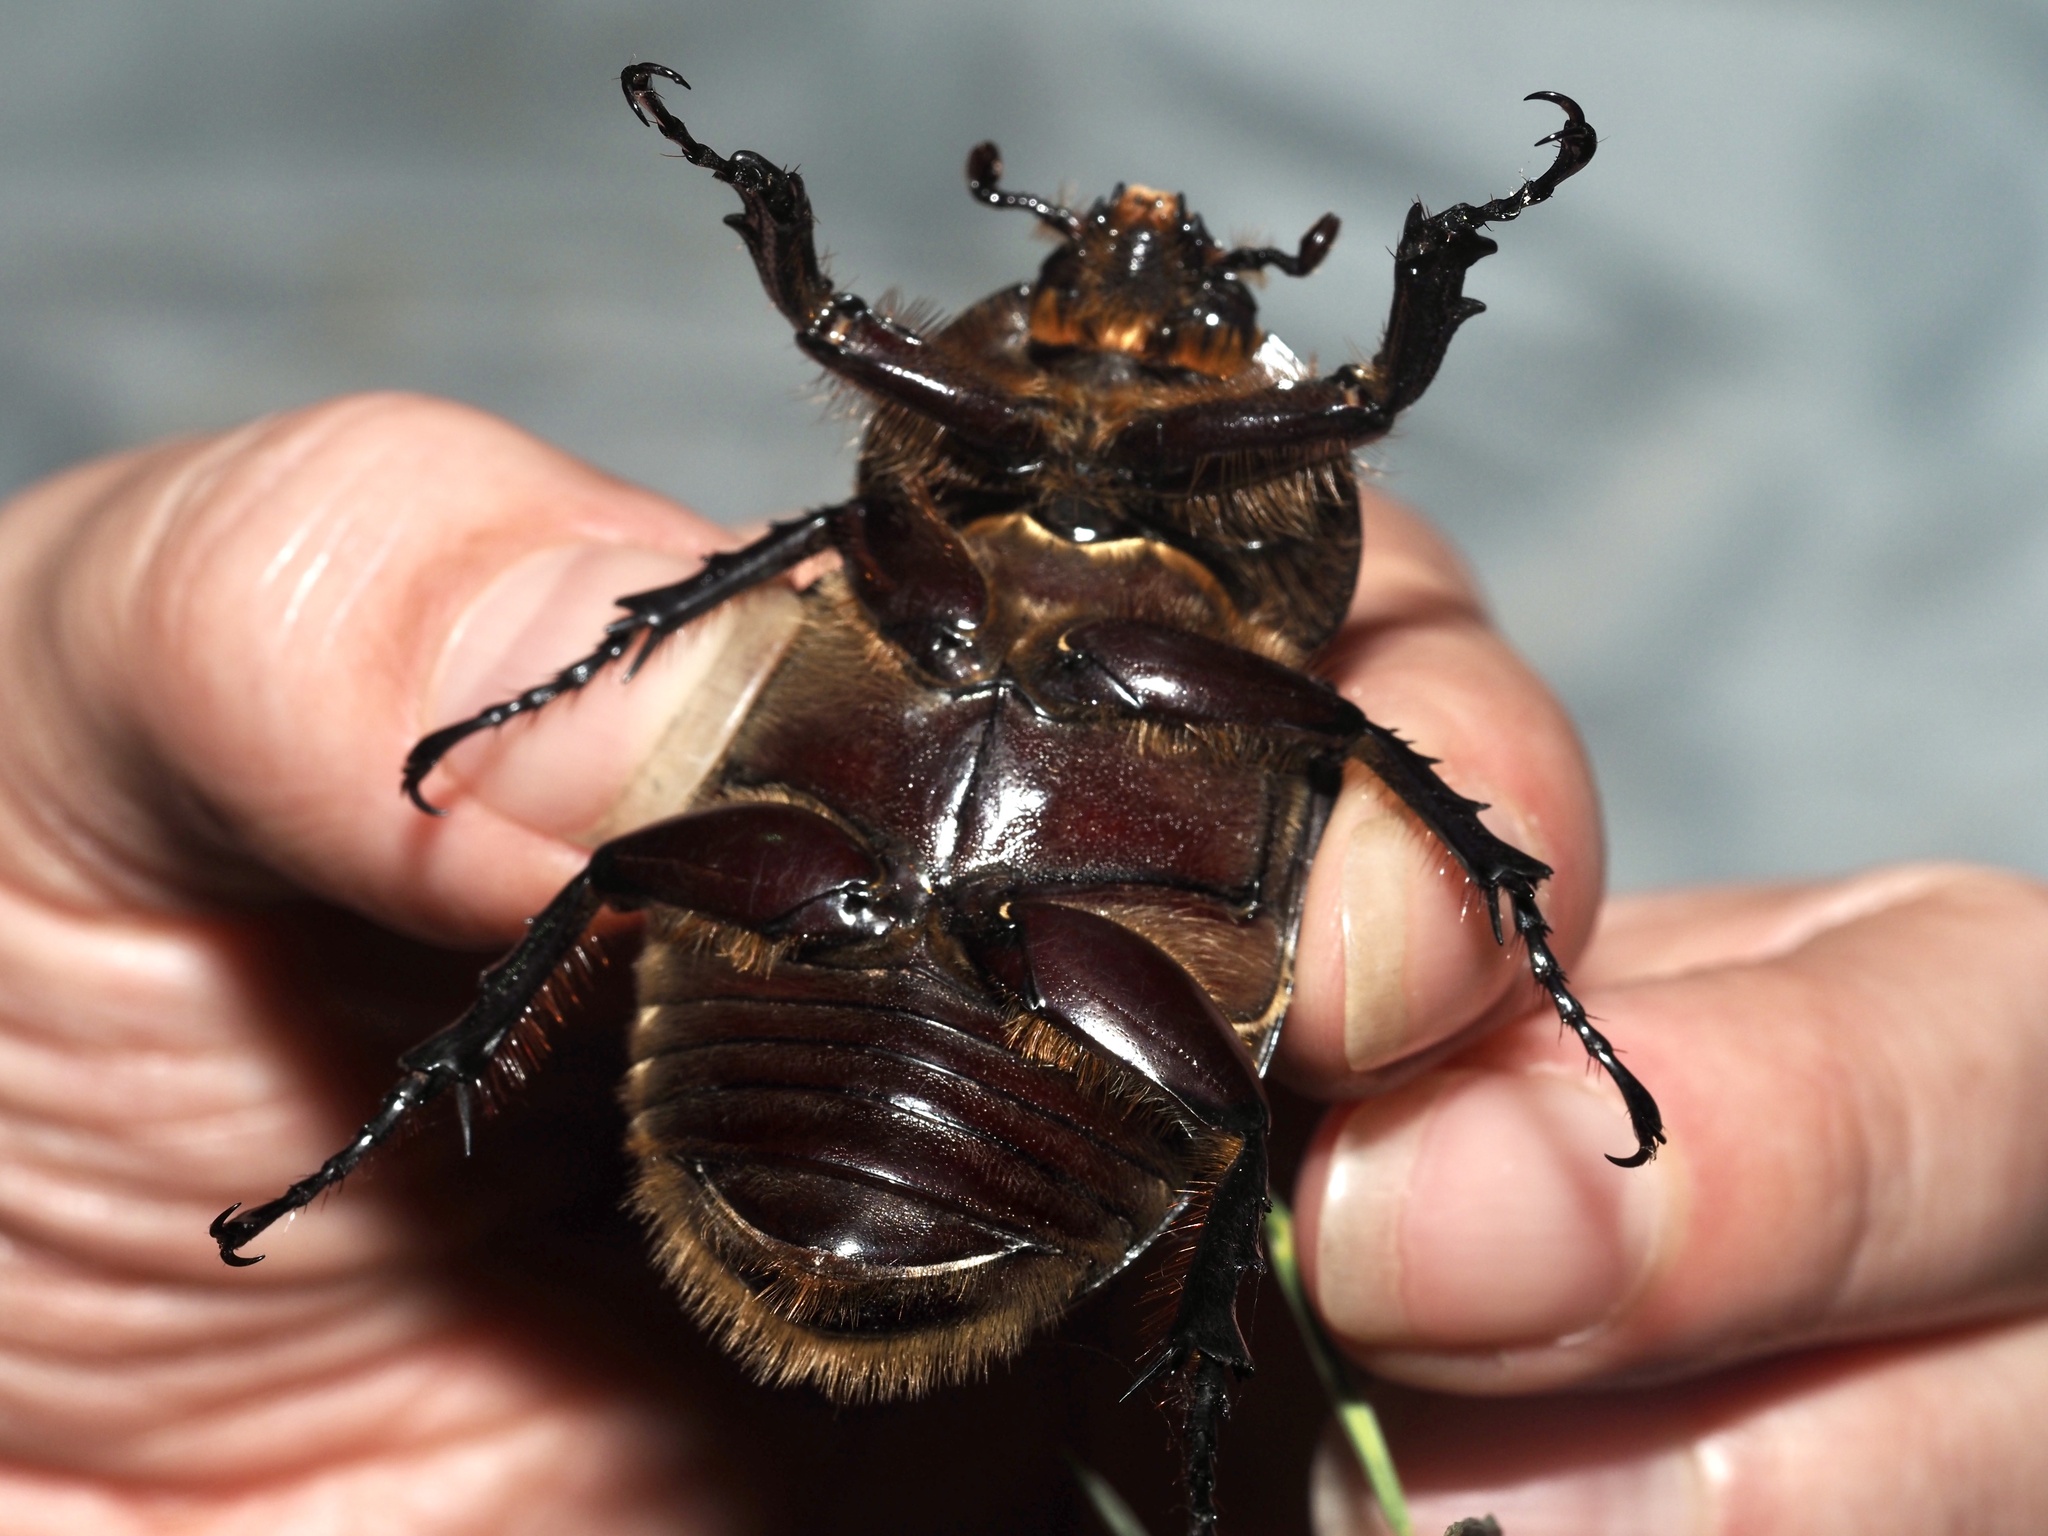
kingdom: Animalia
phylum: Arthropoda
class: Insecta
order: Coleoptera
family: Scarabaeidae
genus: Dynastes
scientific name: Dynastes tityus
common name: Eastern hercules beetle
